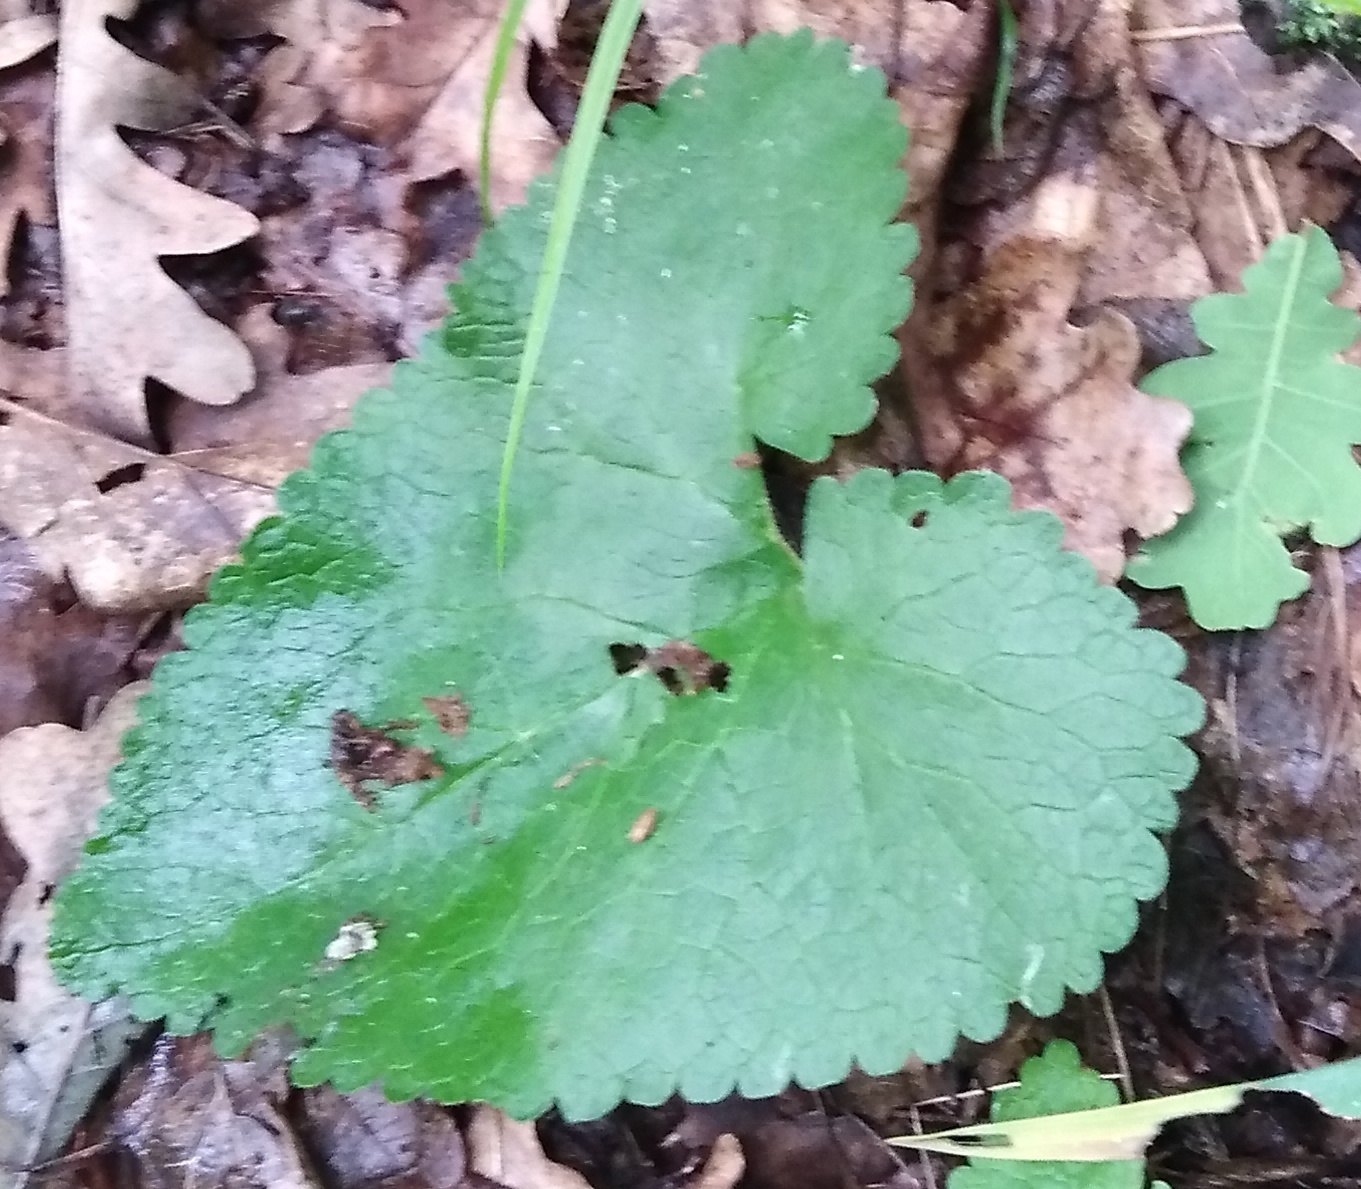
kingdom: Plantae
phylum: Tracheophyta
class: Magnoliopsida
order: Lamiales
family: Lamiaceae
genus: Phlomoides
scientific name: Phlomoides tuberosa
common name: Tuberous jerusalem sage
